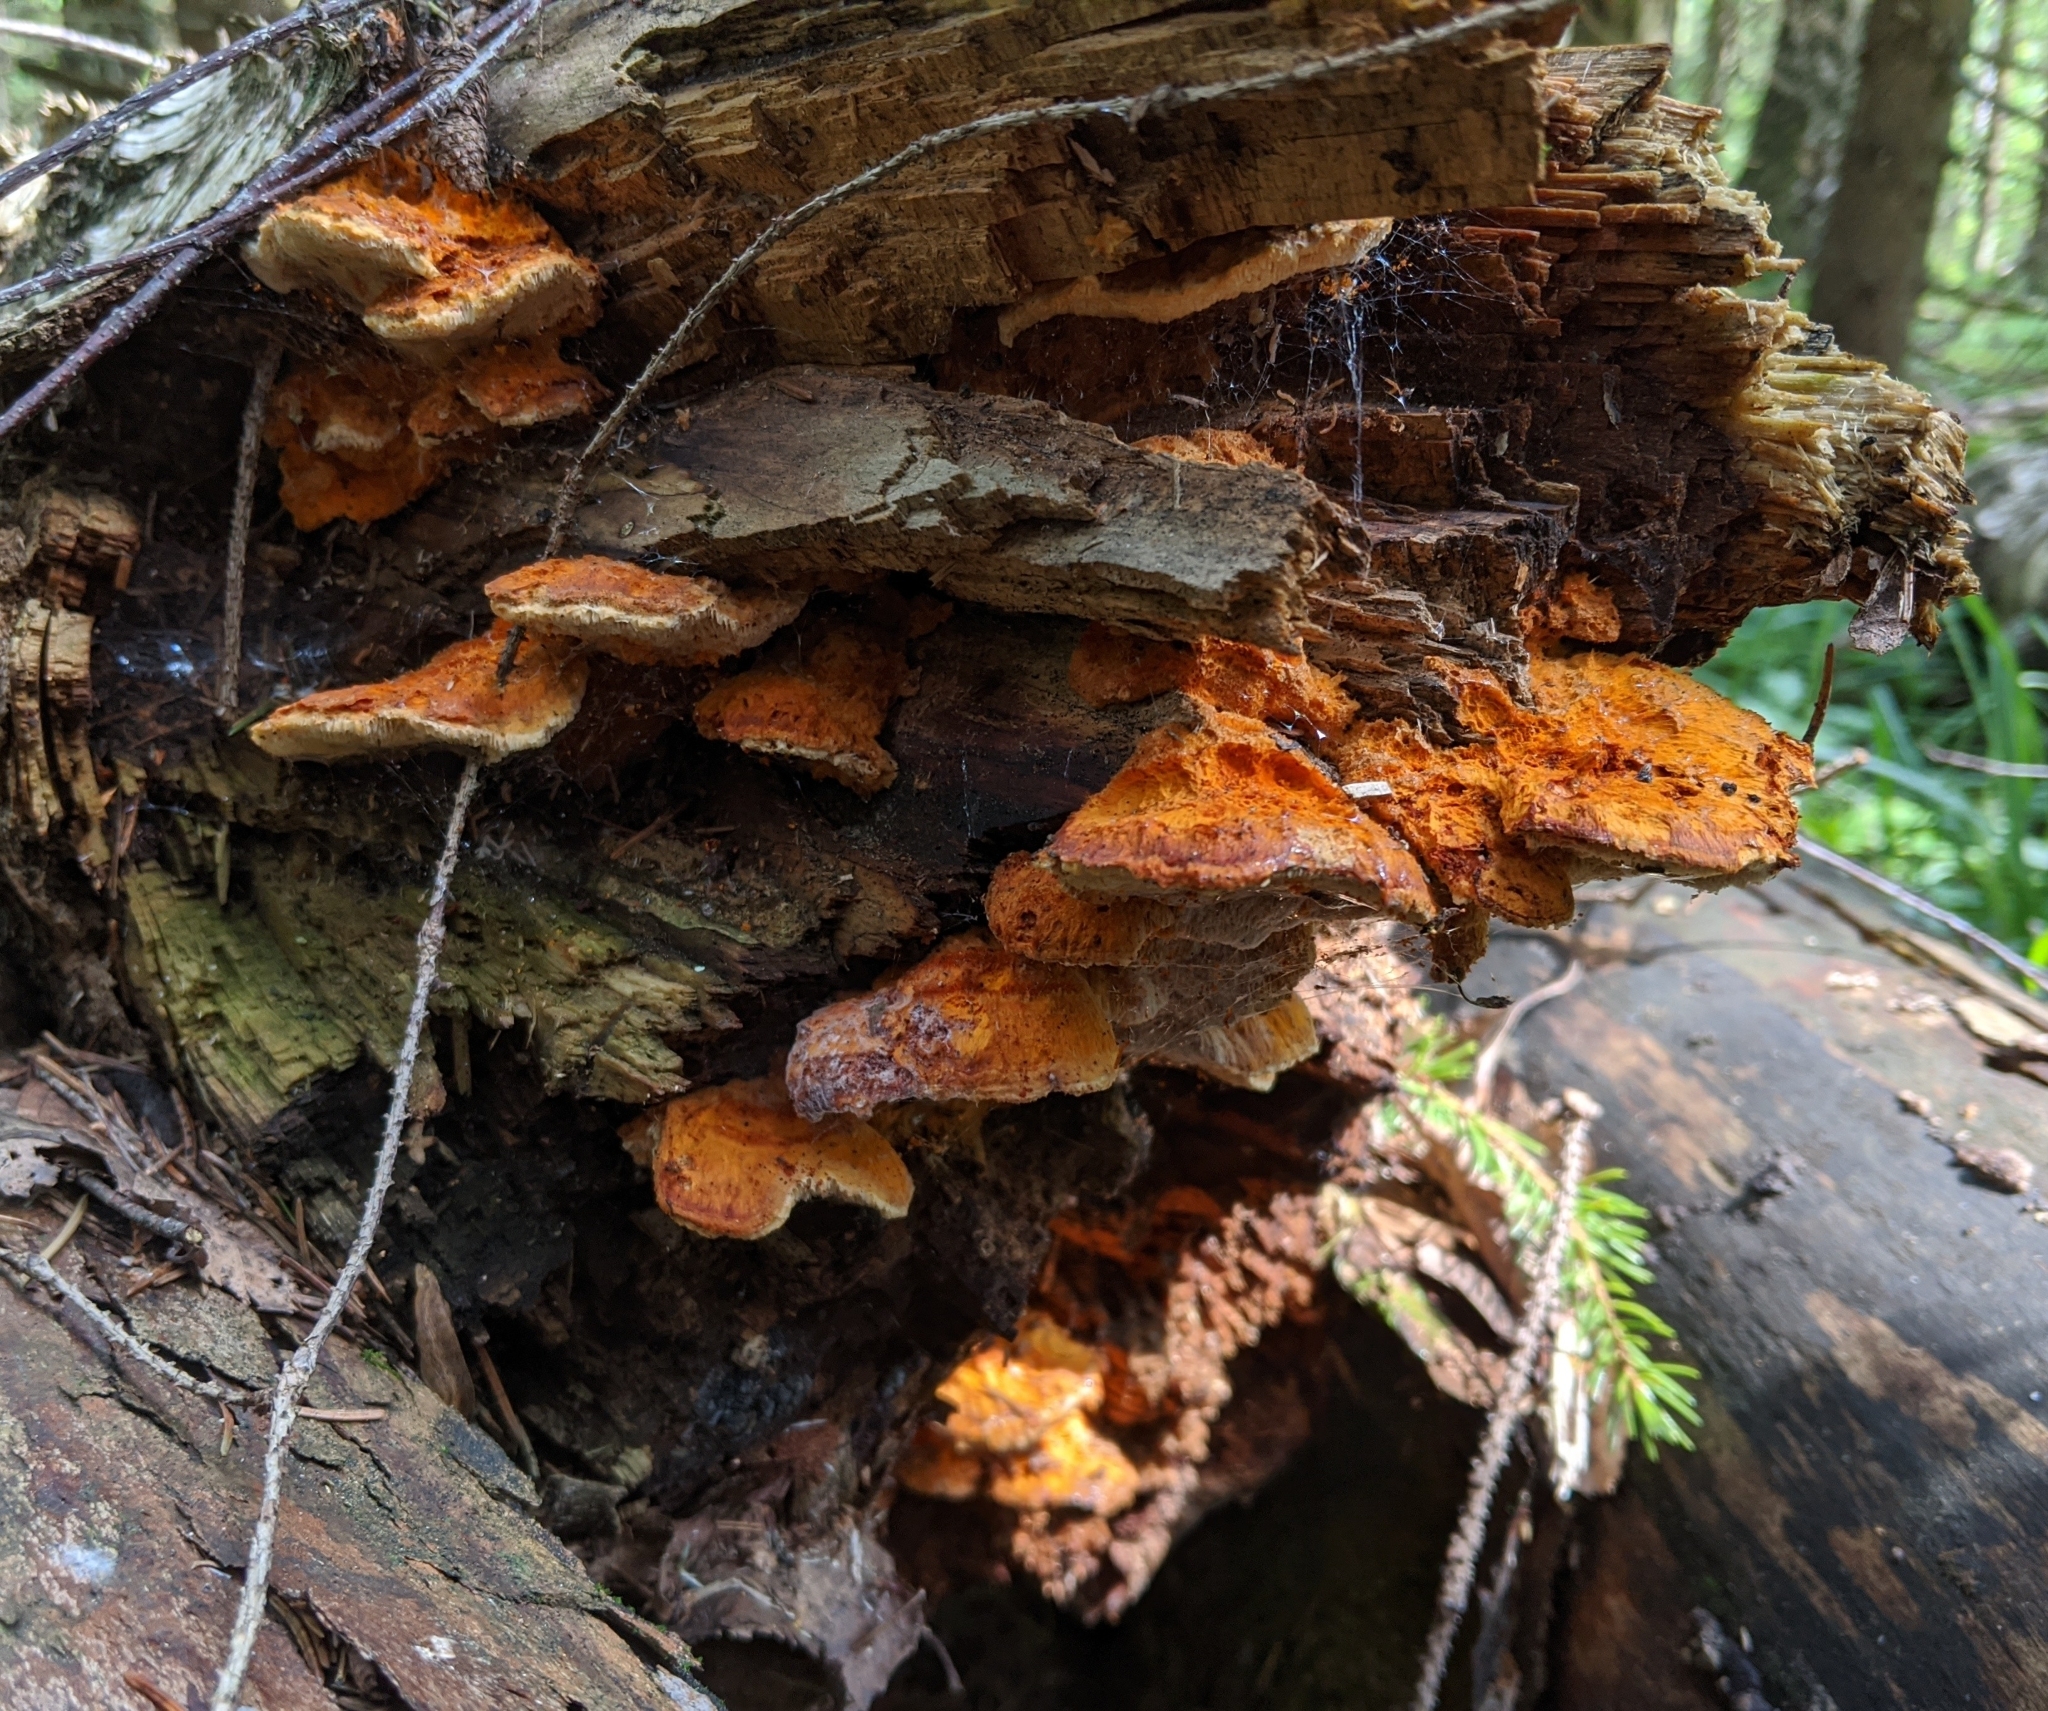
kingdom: Fungi
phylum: Basidiomycota
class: Agaricomycetes
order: Polyporales
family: Pycnoporellaceae
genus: Pycnoporellus
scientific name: Pycnoporellus fulgens
